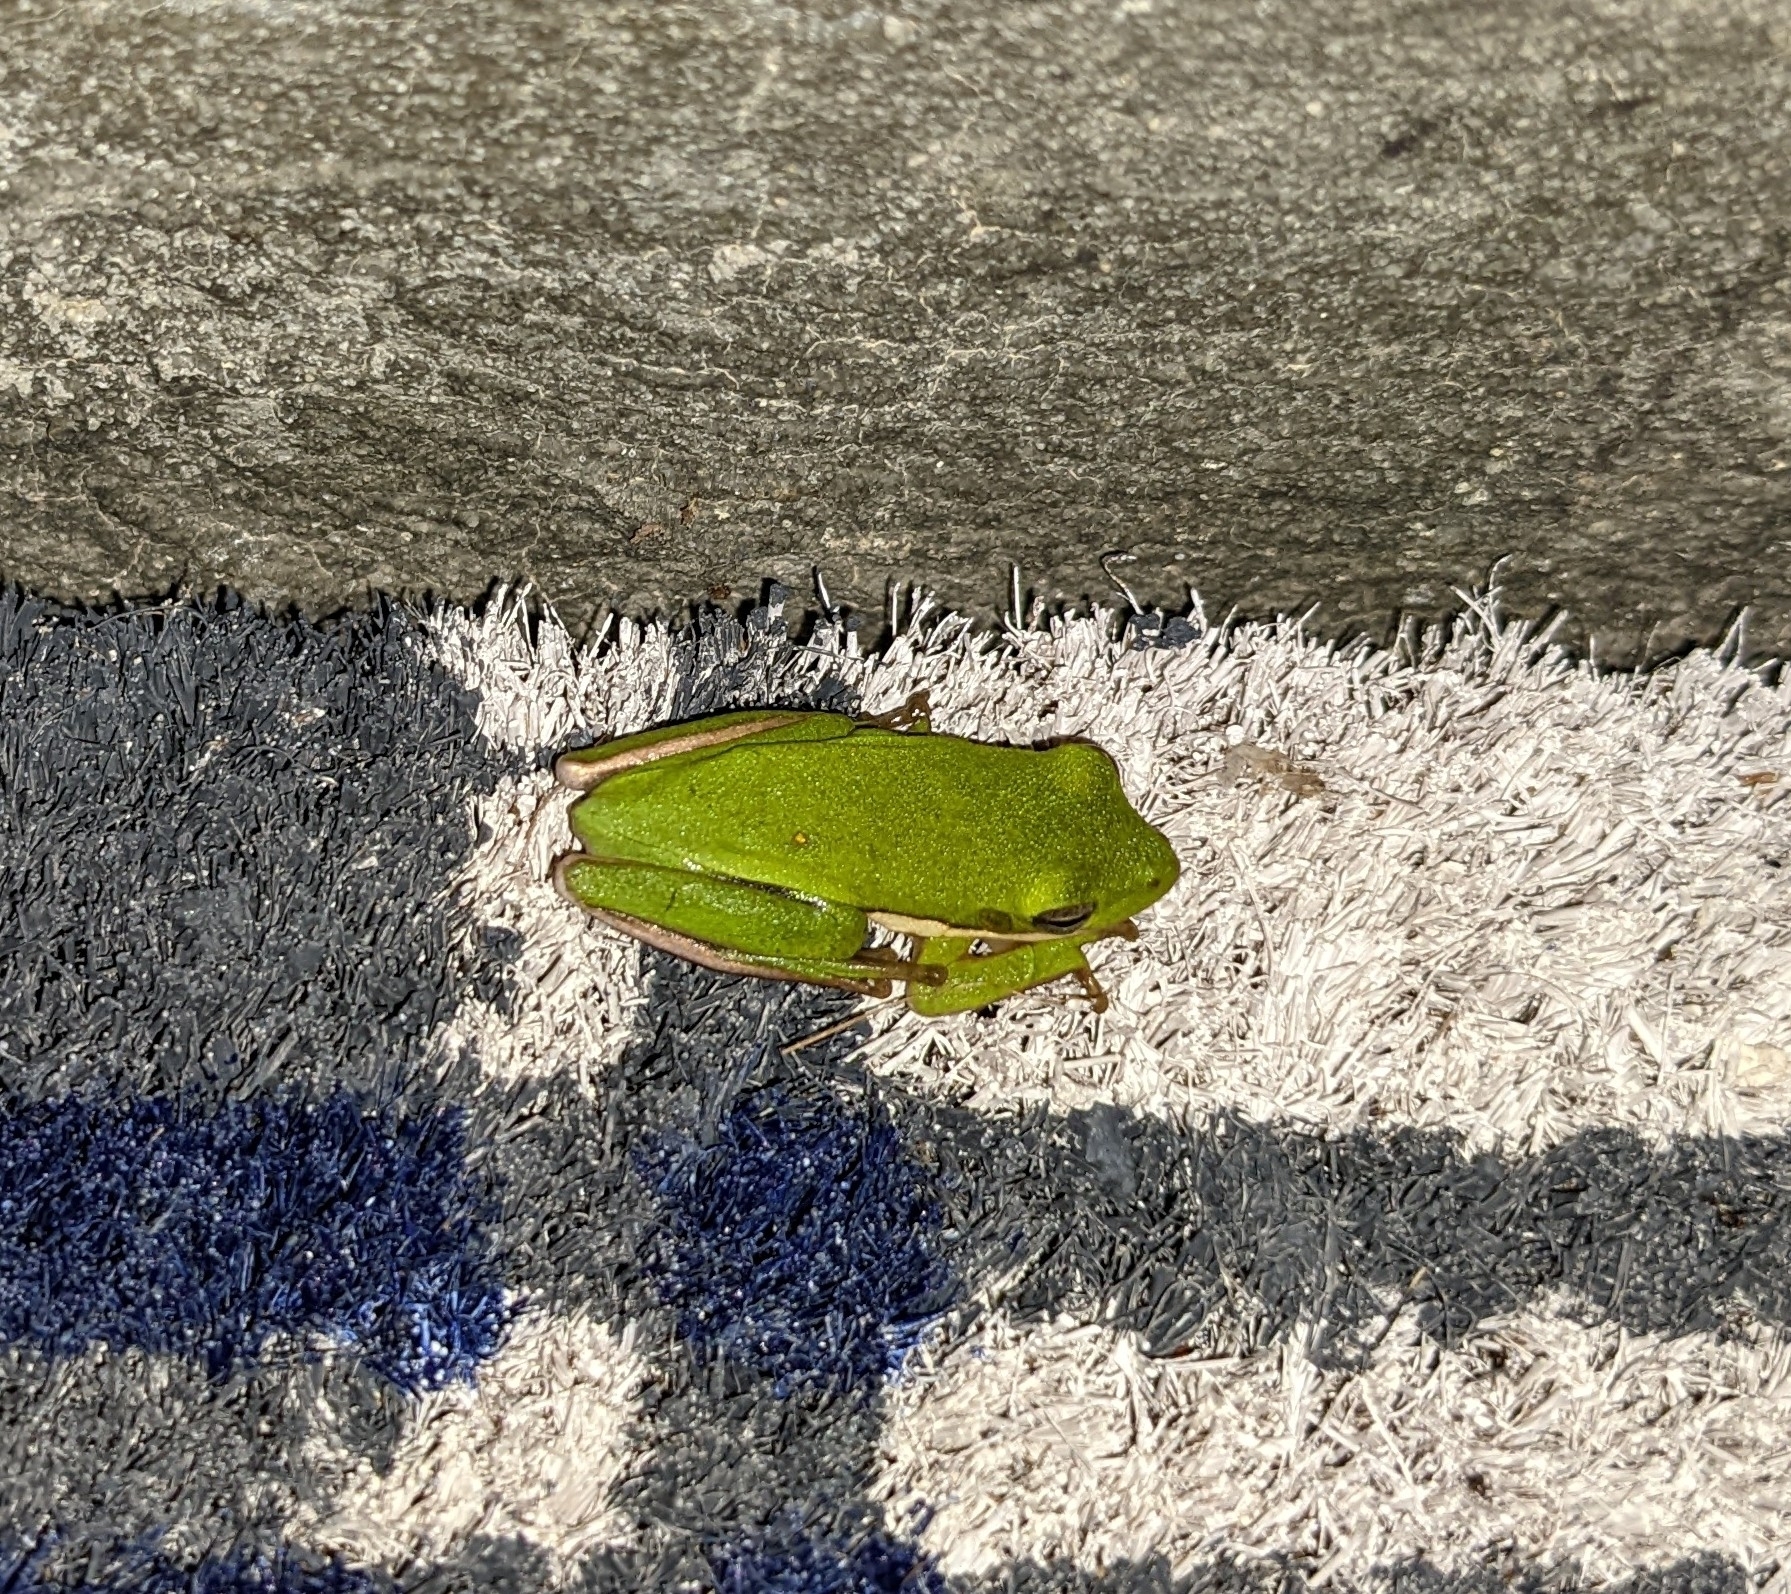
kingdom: Animalia
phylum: Chordata
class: Amphibia
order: Anura
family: Hylidae
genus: Dryophytes
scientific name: Dryophytes cinereus
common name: Green treefrog
